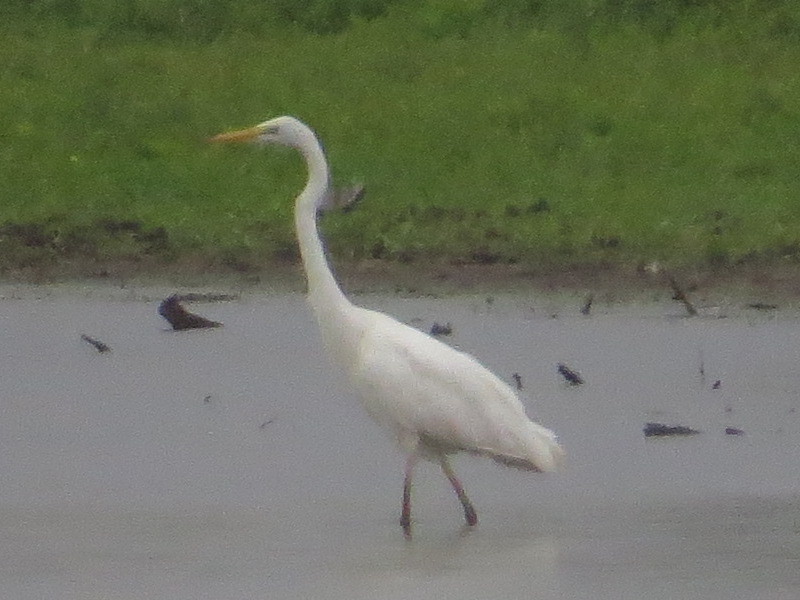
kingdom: Animalia
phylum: Chordata
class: Aves
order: Pelecaniformes
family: Ardeidae
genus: Ardea
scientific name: Ardea alba
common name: Great egret
